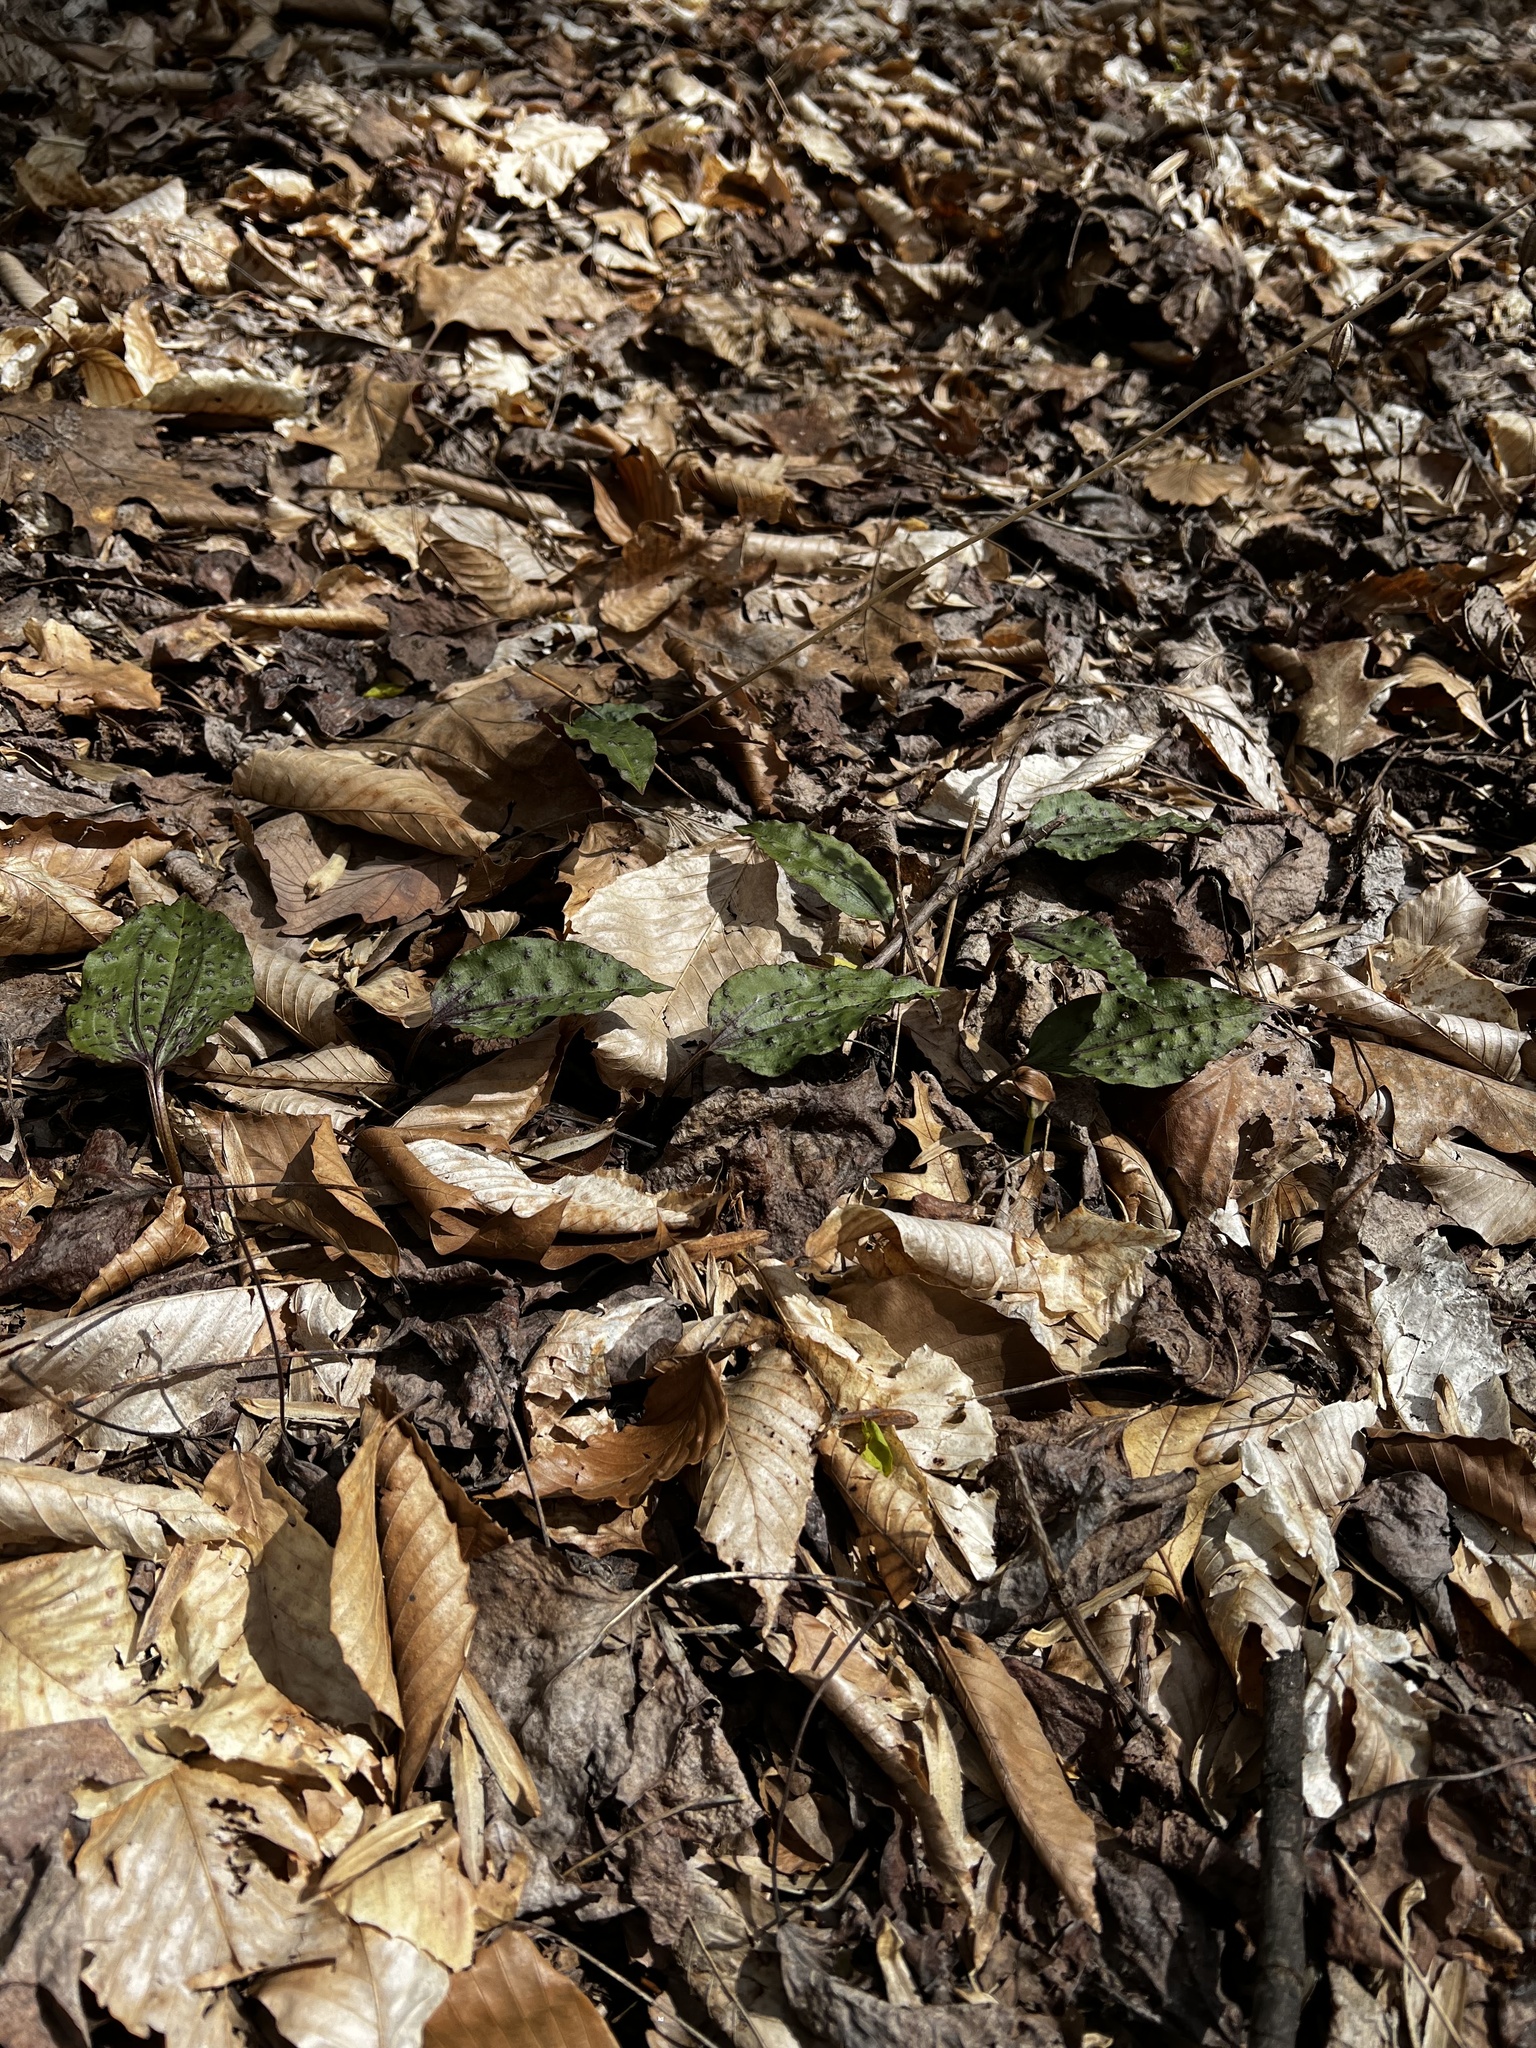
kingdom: Plantae
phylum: Tracheophyta
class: Liliopsida
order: Asparagales
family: Orchidaceae
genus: Tipularia
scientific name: Tipularia discolor
